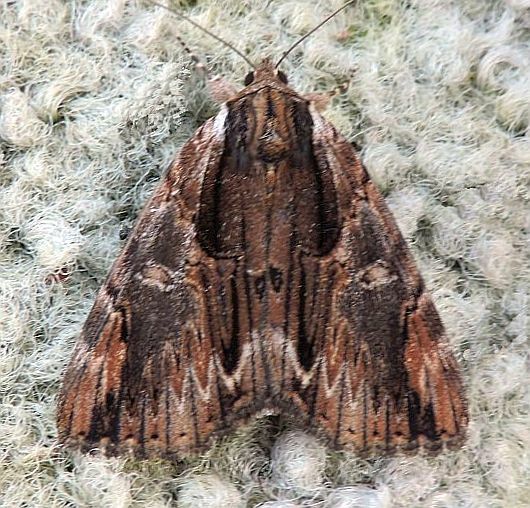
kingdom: Animalia
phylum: Arthropoda
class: Insecta
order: Lepidoptera
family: Erebidae
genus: Catocala
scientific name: Catocala ultronia
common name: Ultronia underwing
